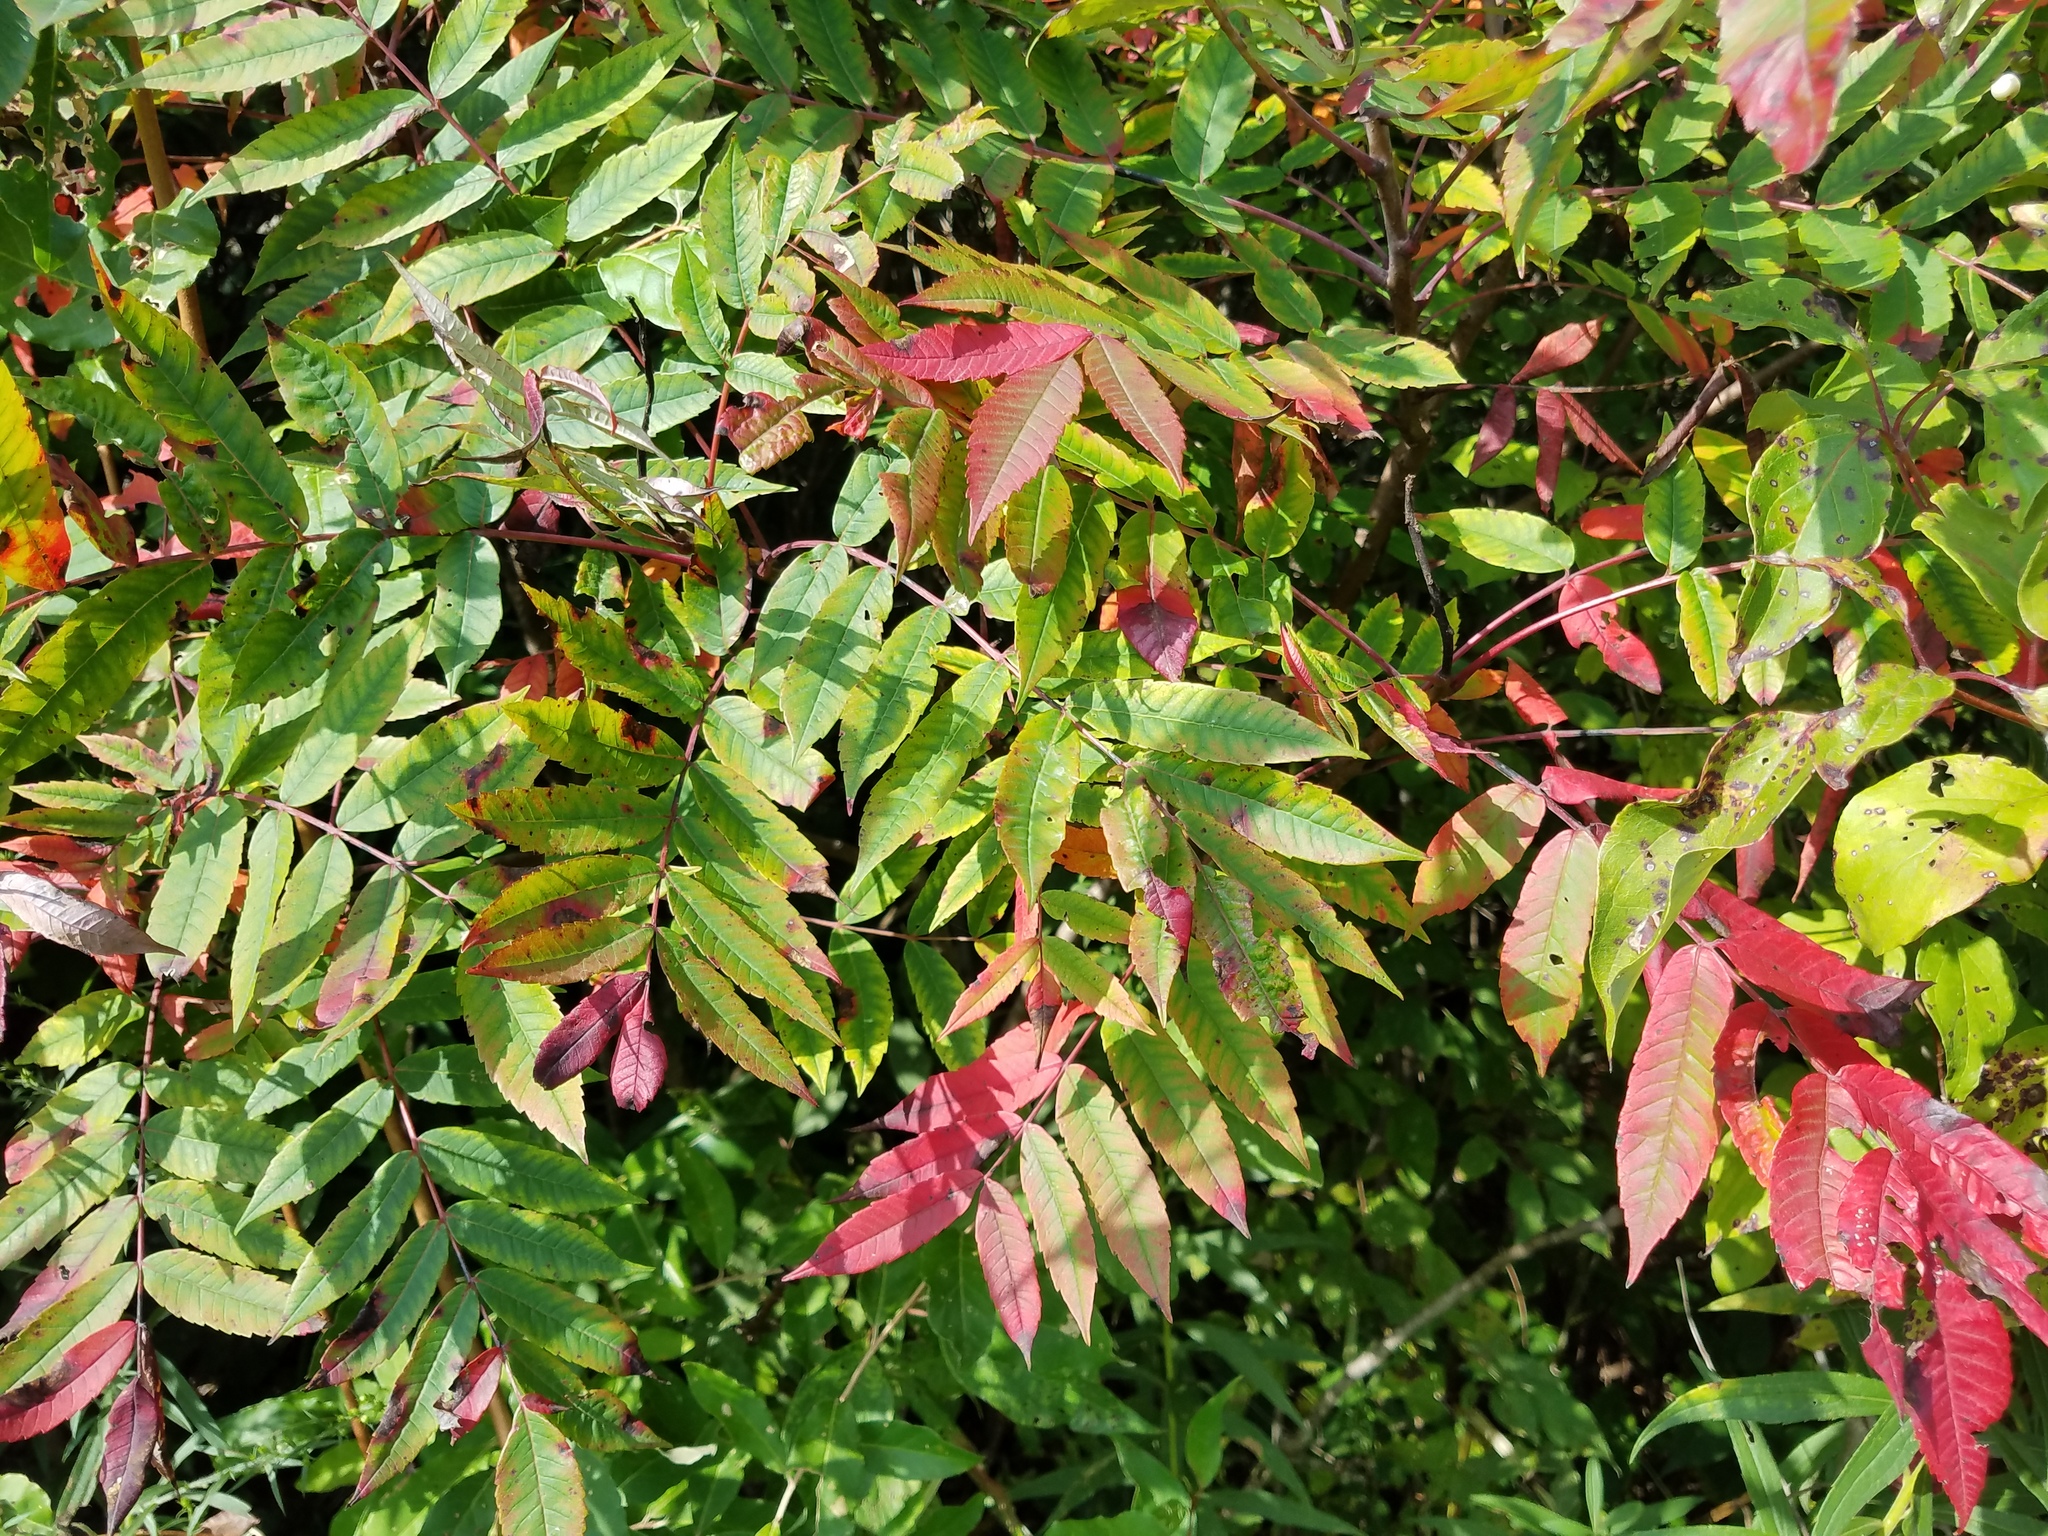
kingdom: Plantae
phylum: Tracheophyta
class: Magnoliopsida
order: Sapindales
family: Anacardiaceae
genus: Rhus
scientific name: Rhus glabra
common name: Scarlet sumac
